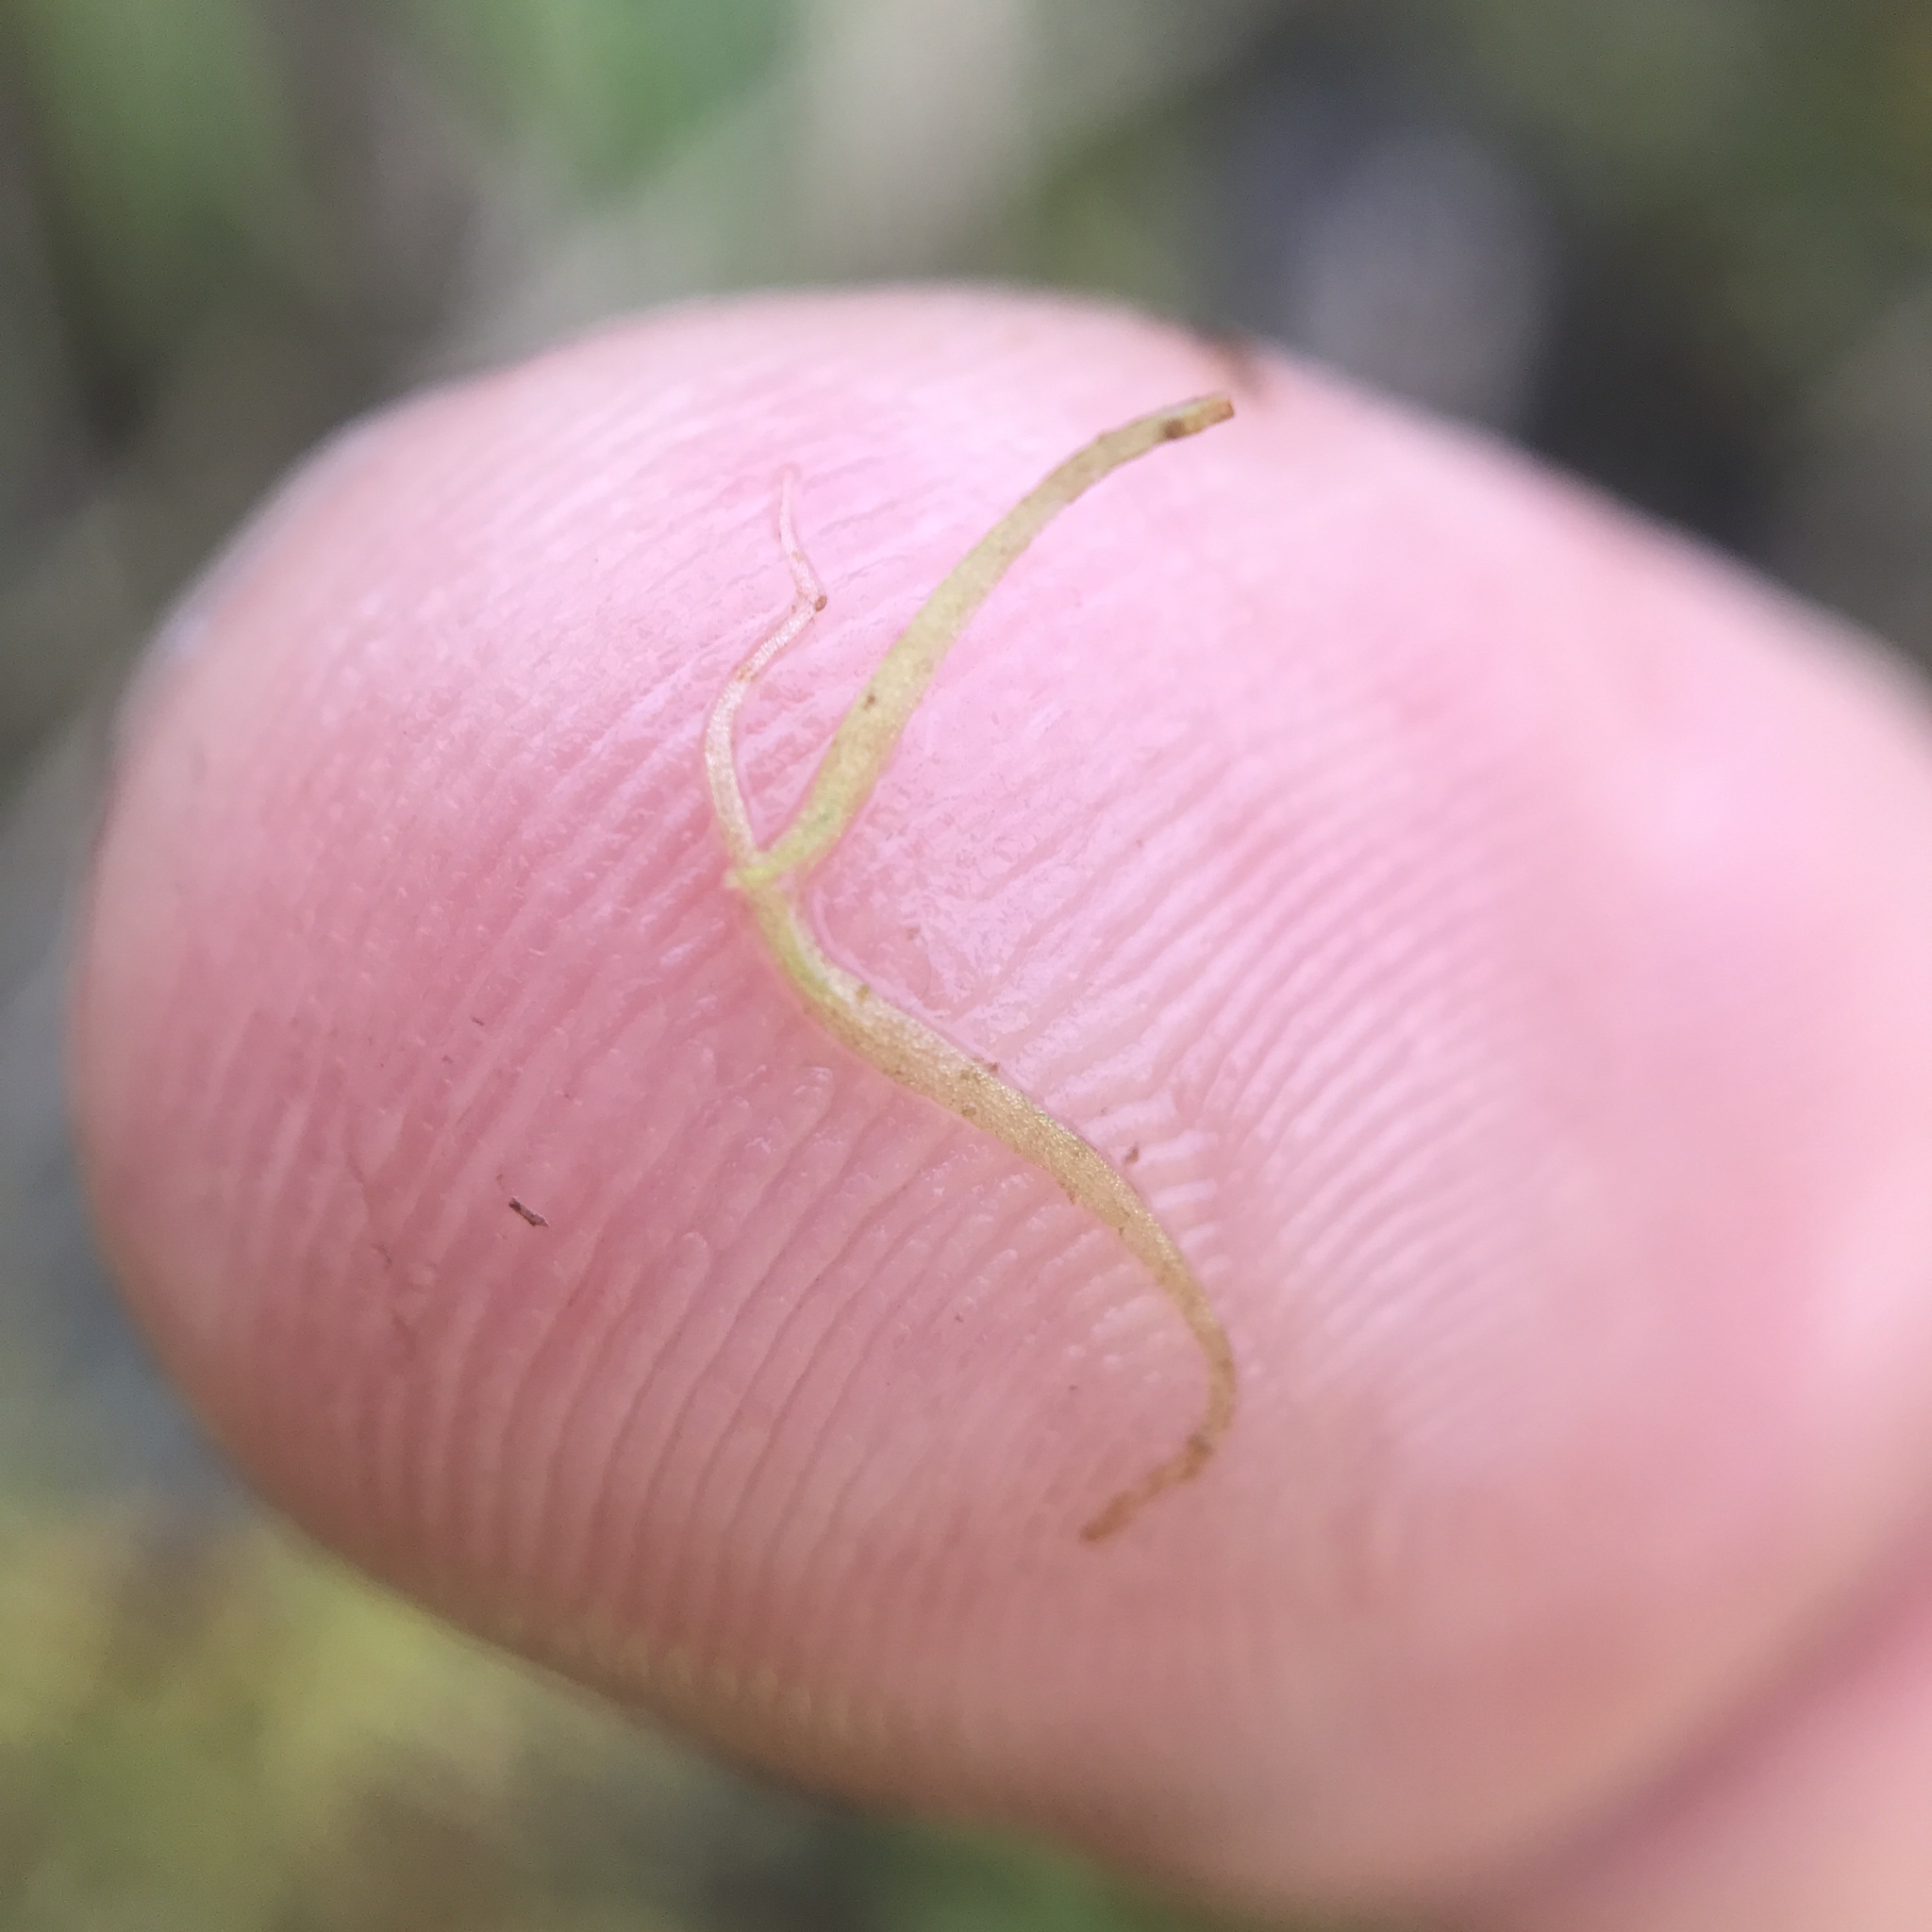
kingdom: Plantae
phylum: Tracheophyta
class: Liliopsida
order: Alismatales
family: Araceae
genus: Wolffiella
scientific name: Wolffiella gladiata
